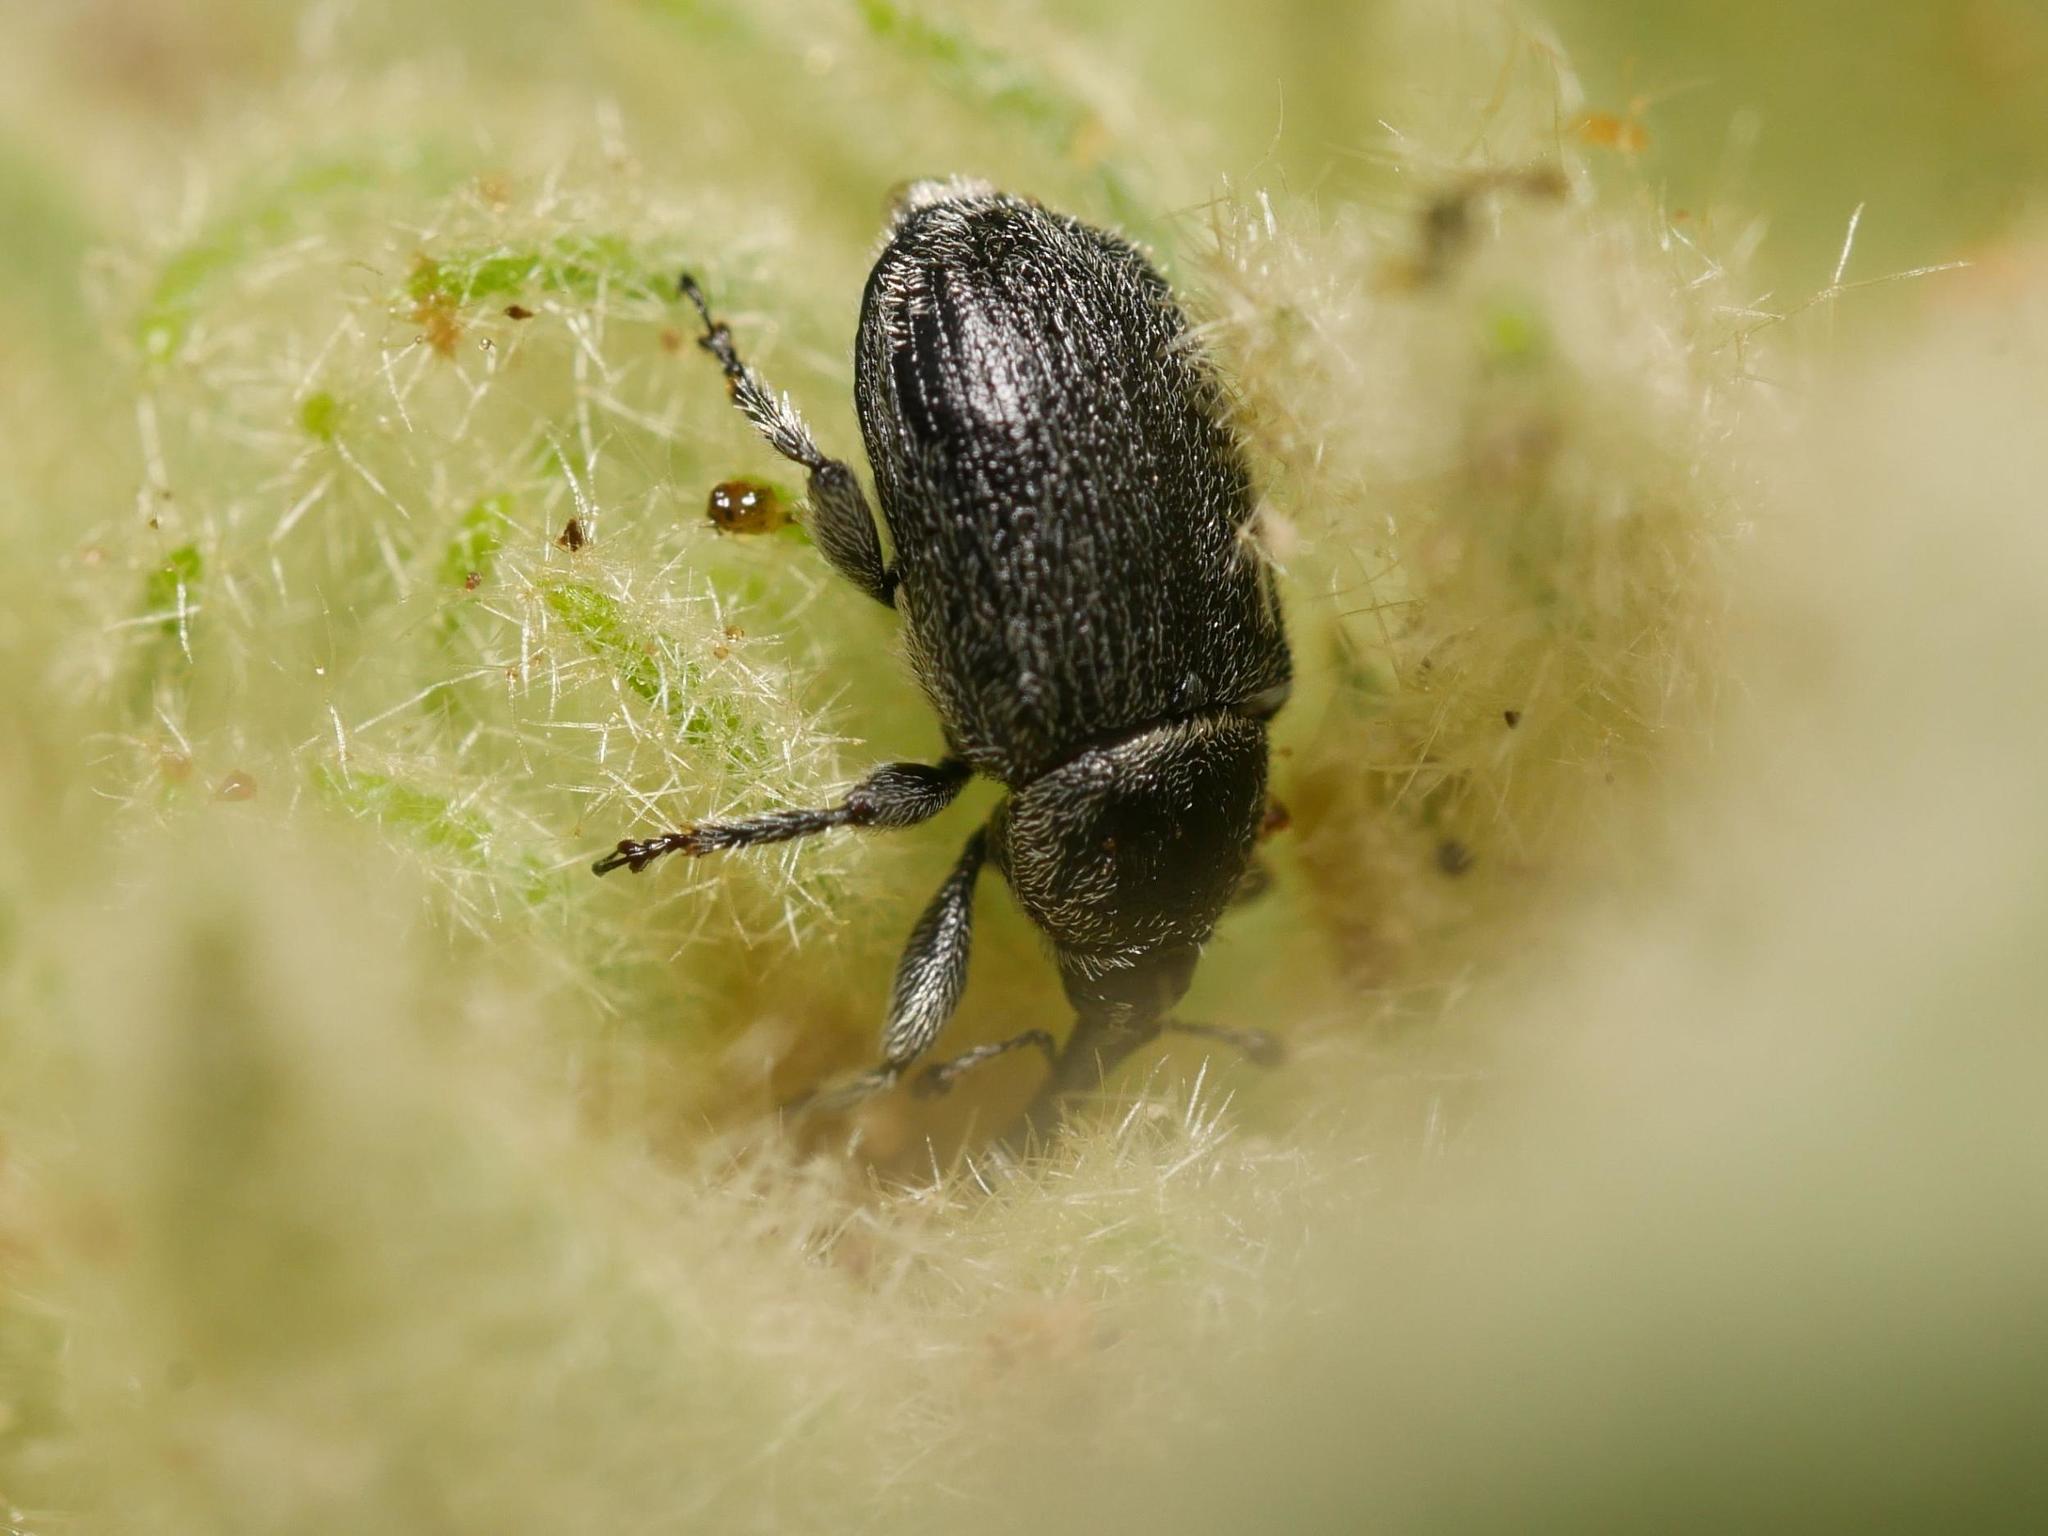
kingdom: Animalia
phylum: Arthropoda
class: Insecta
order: Coleoptera
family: Curculionidae
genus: Rhinusa
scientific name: Rhinusa tetra
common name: Weevil
